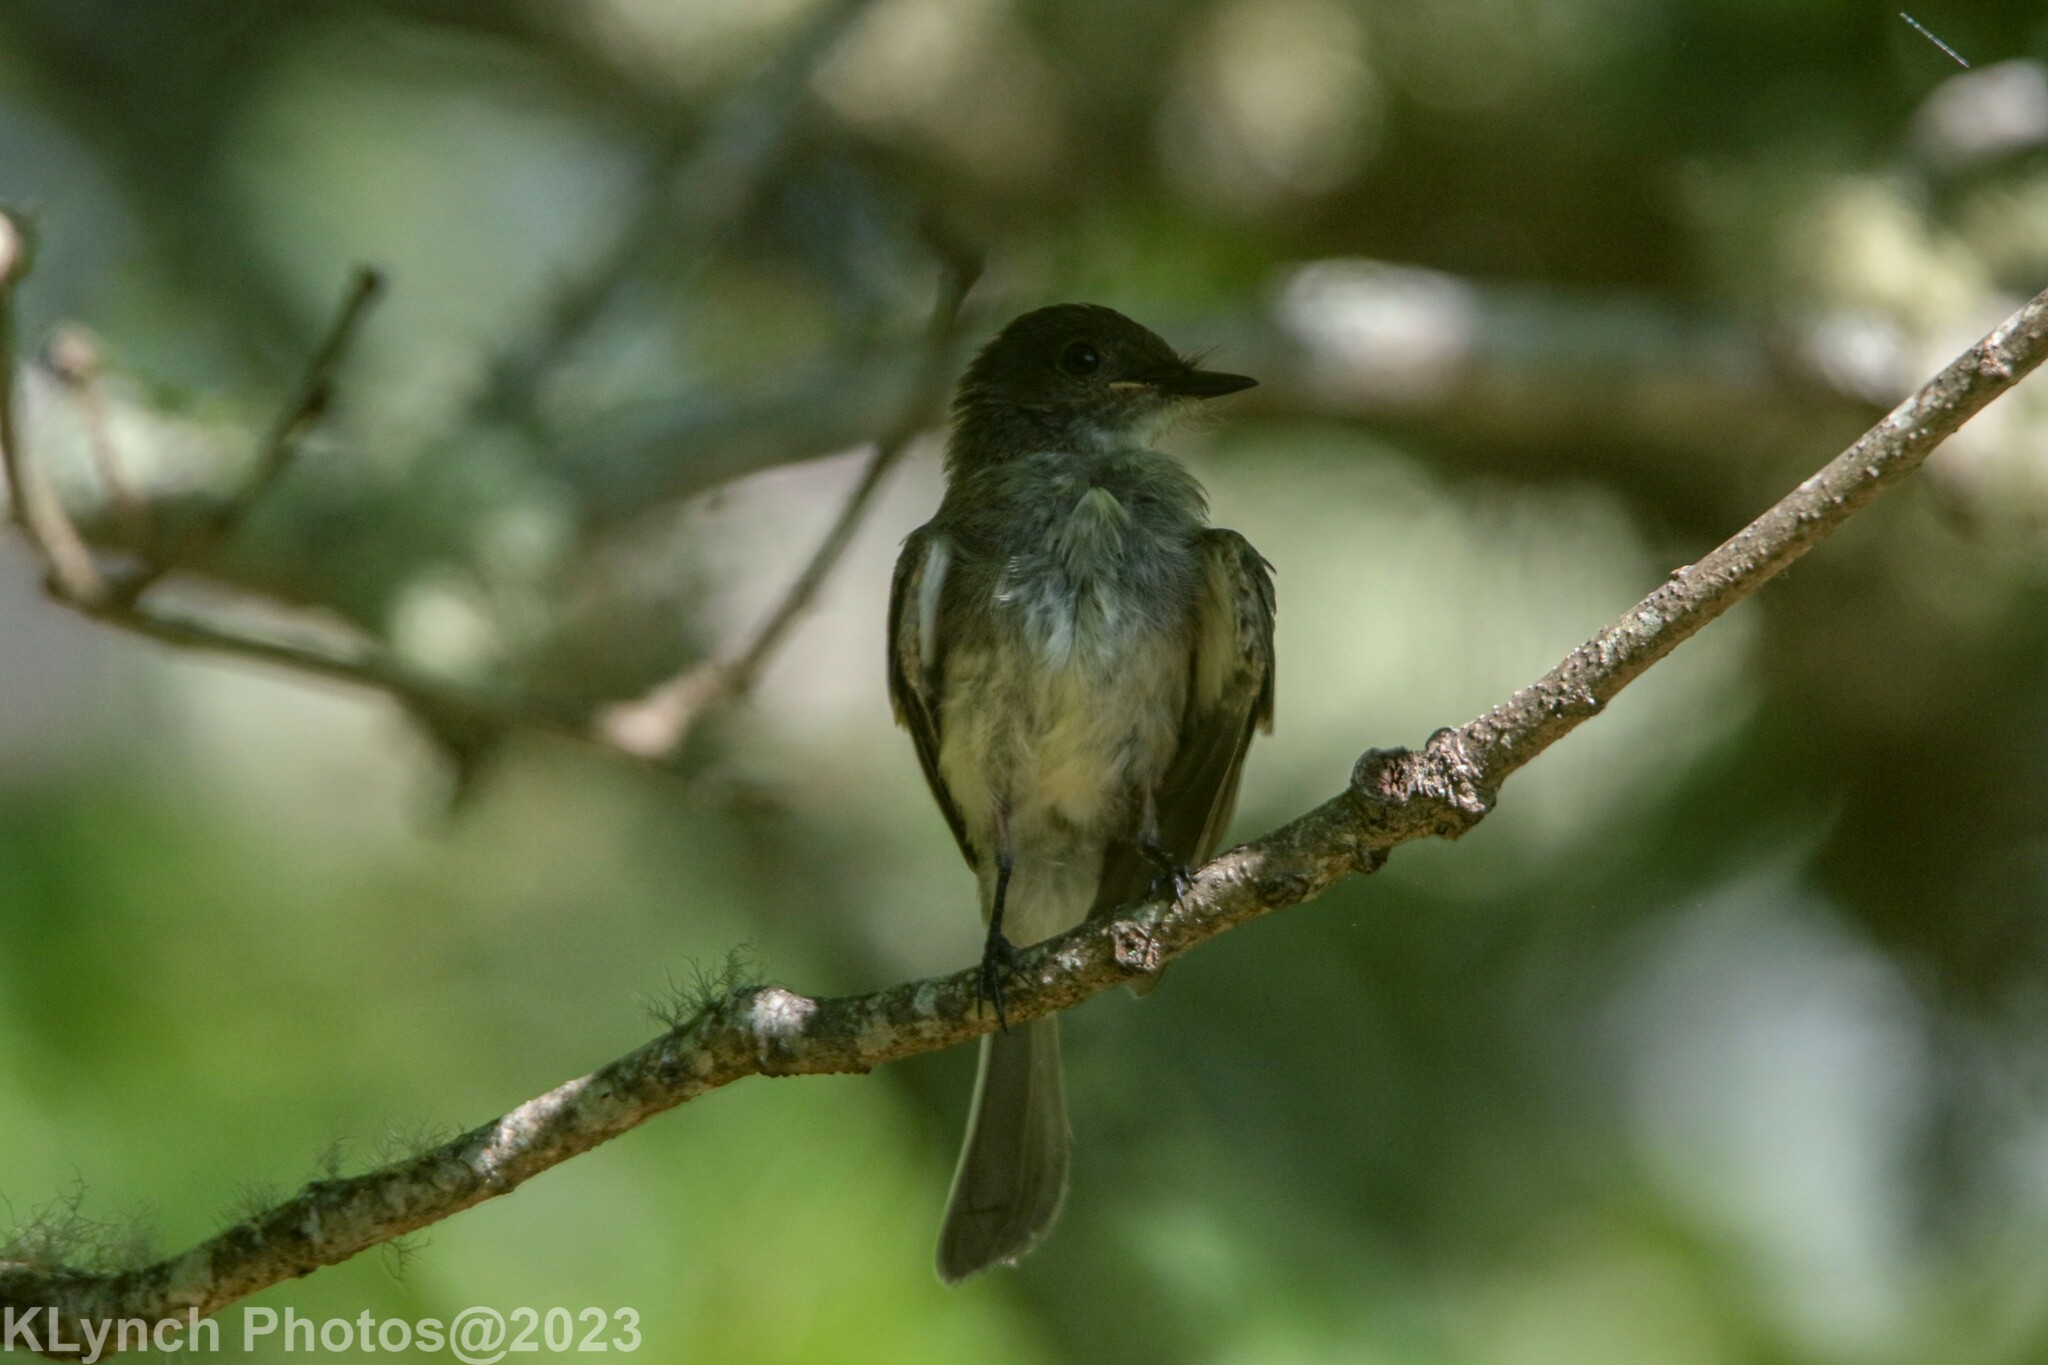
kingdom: Animalia
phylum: Chordata
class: Aves
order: Passeriformes
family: Tyrannidae
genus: Sayornis
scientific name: Sayornis phoebe
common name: Eastern phoebe
